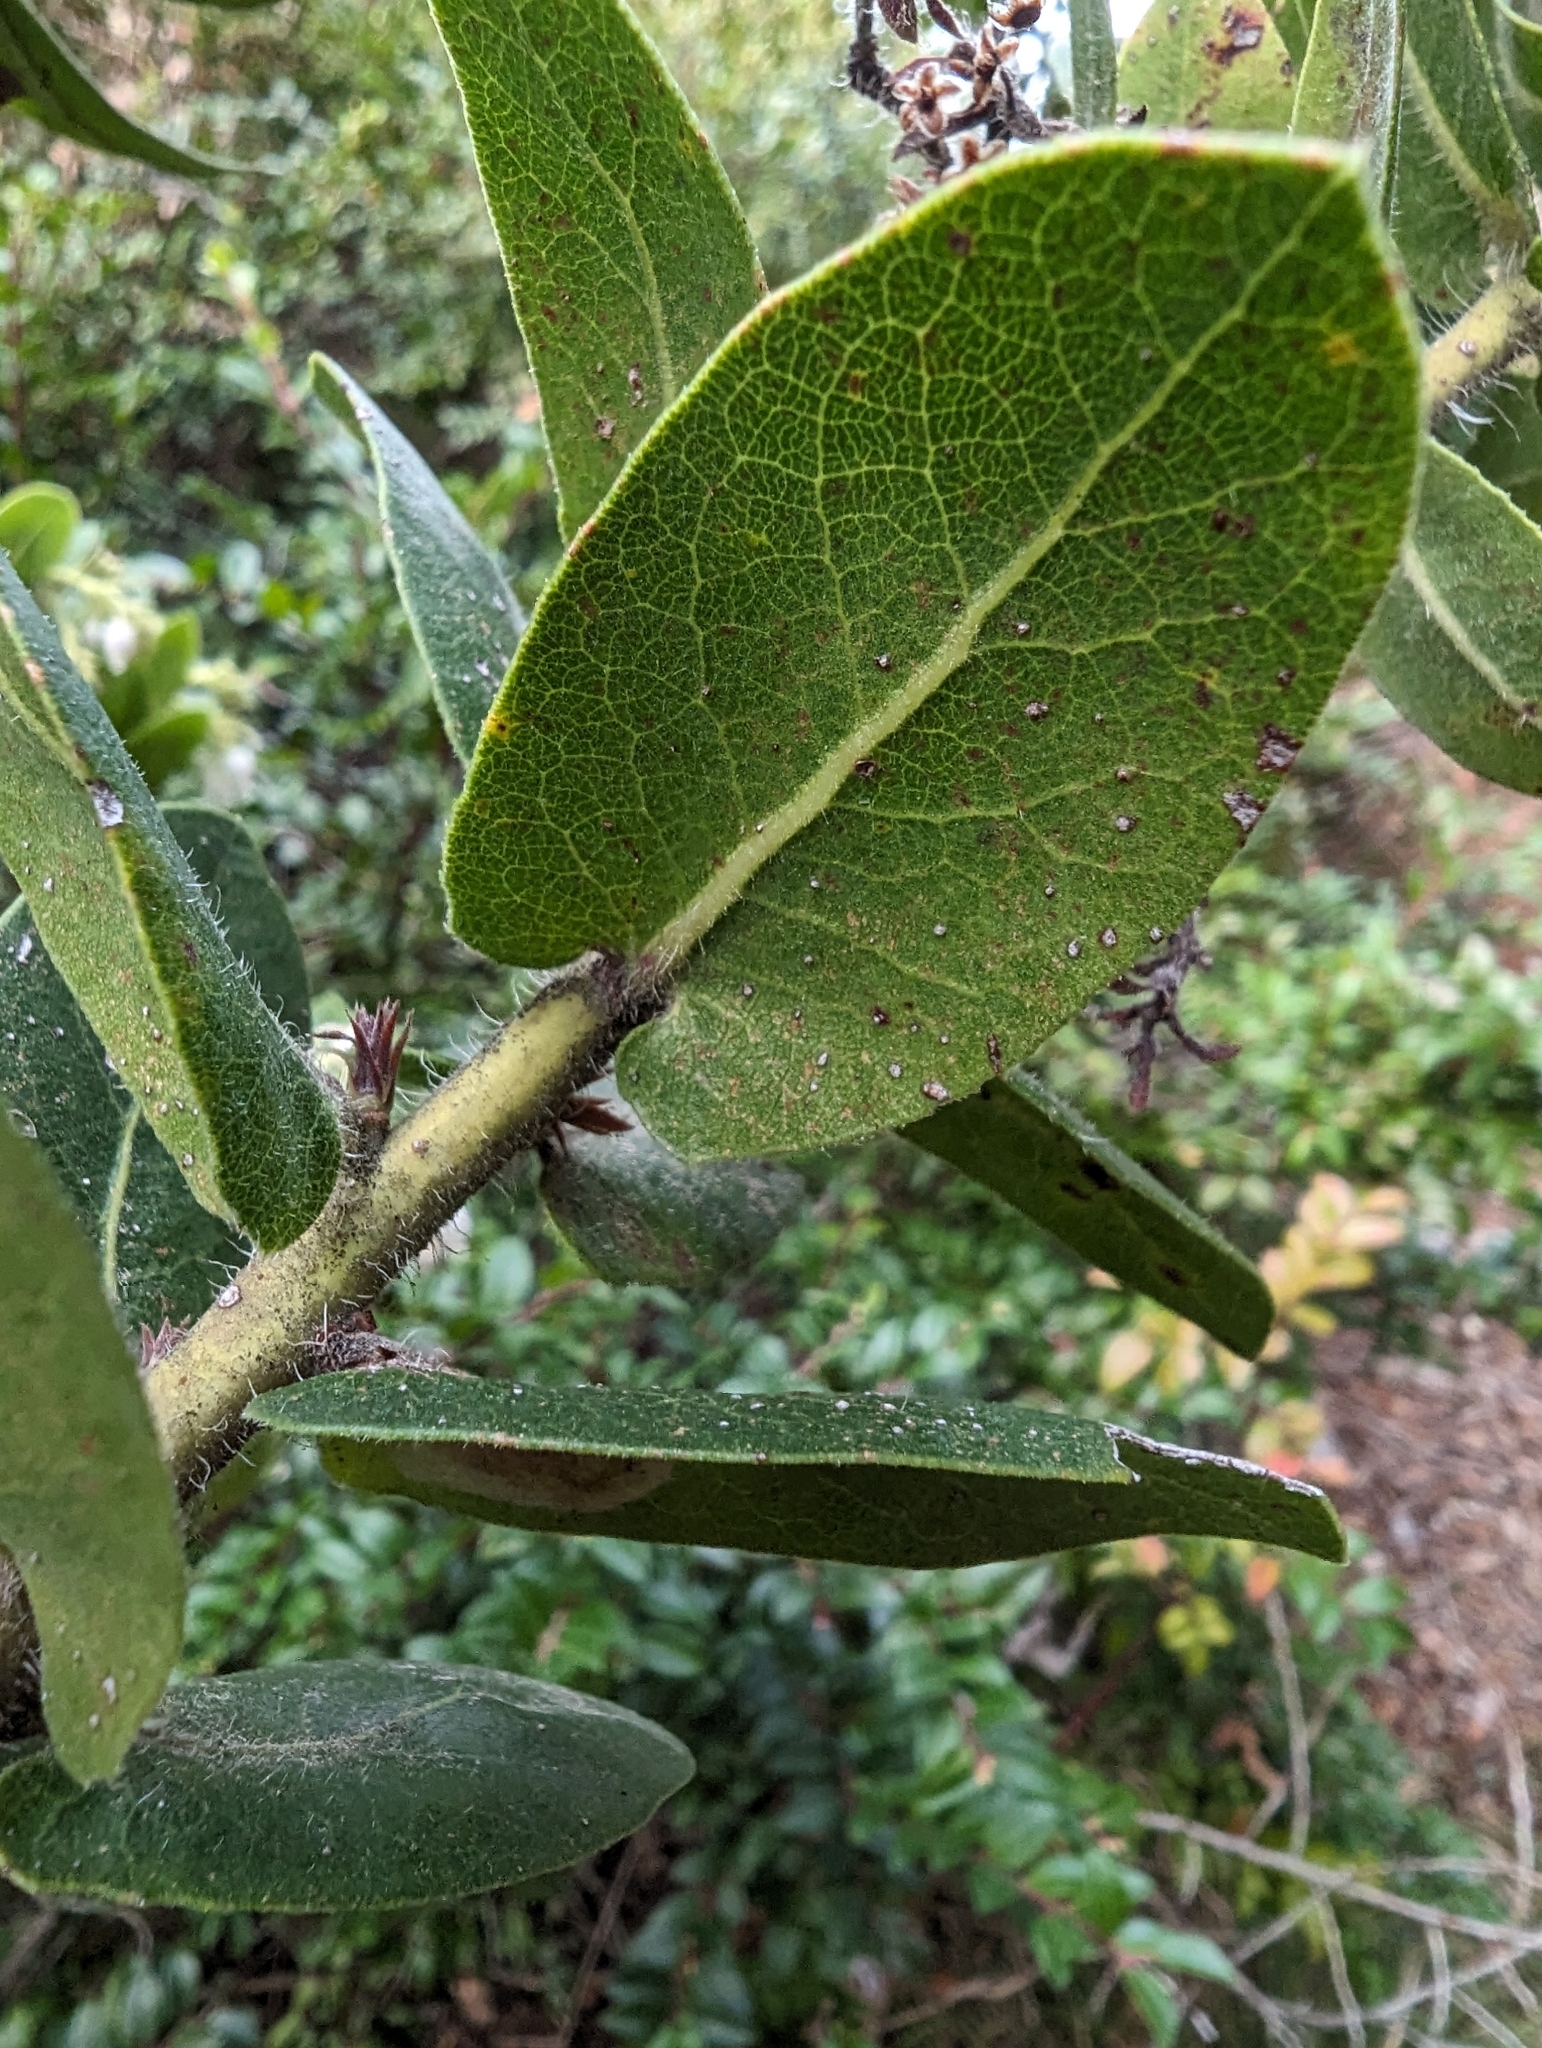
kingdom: Plantae
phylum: Tracheophyta
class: Magnoliopsida
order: Ericales
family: Ericaceae
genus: Arctostaphylos
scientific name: Arctostaphylos regismontana
